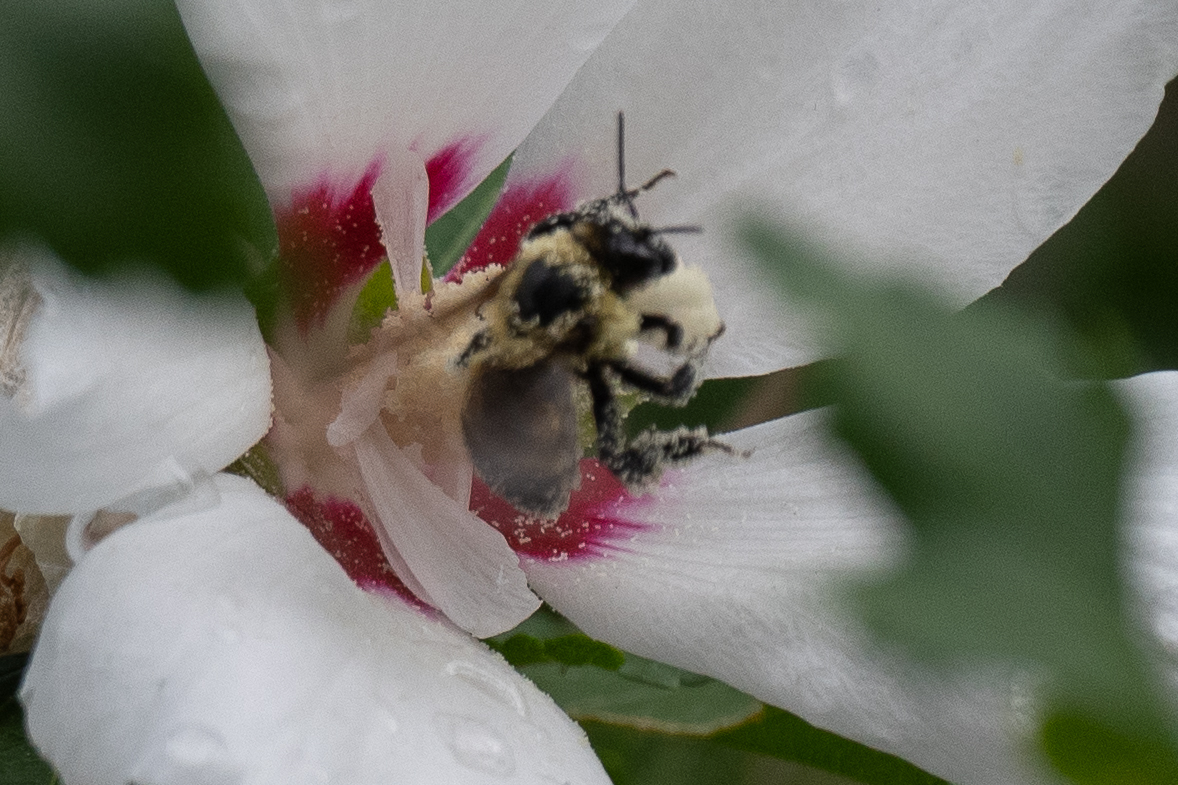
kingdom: Animalia
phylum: Arthropoda
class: Insecta
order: Hymenoptera
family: Apidae
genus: Bombus
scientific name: Bombus griseocollis
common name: Brown-belted bumble bee
